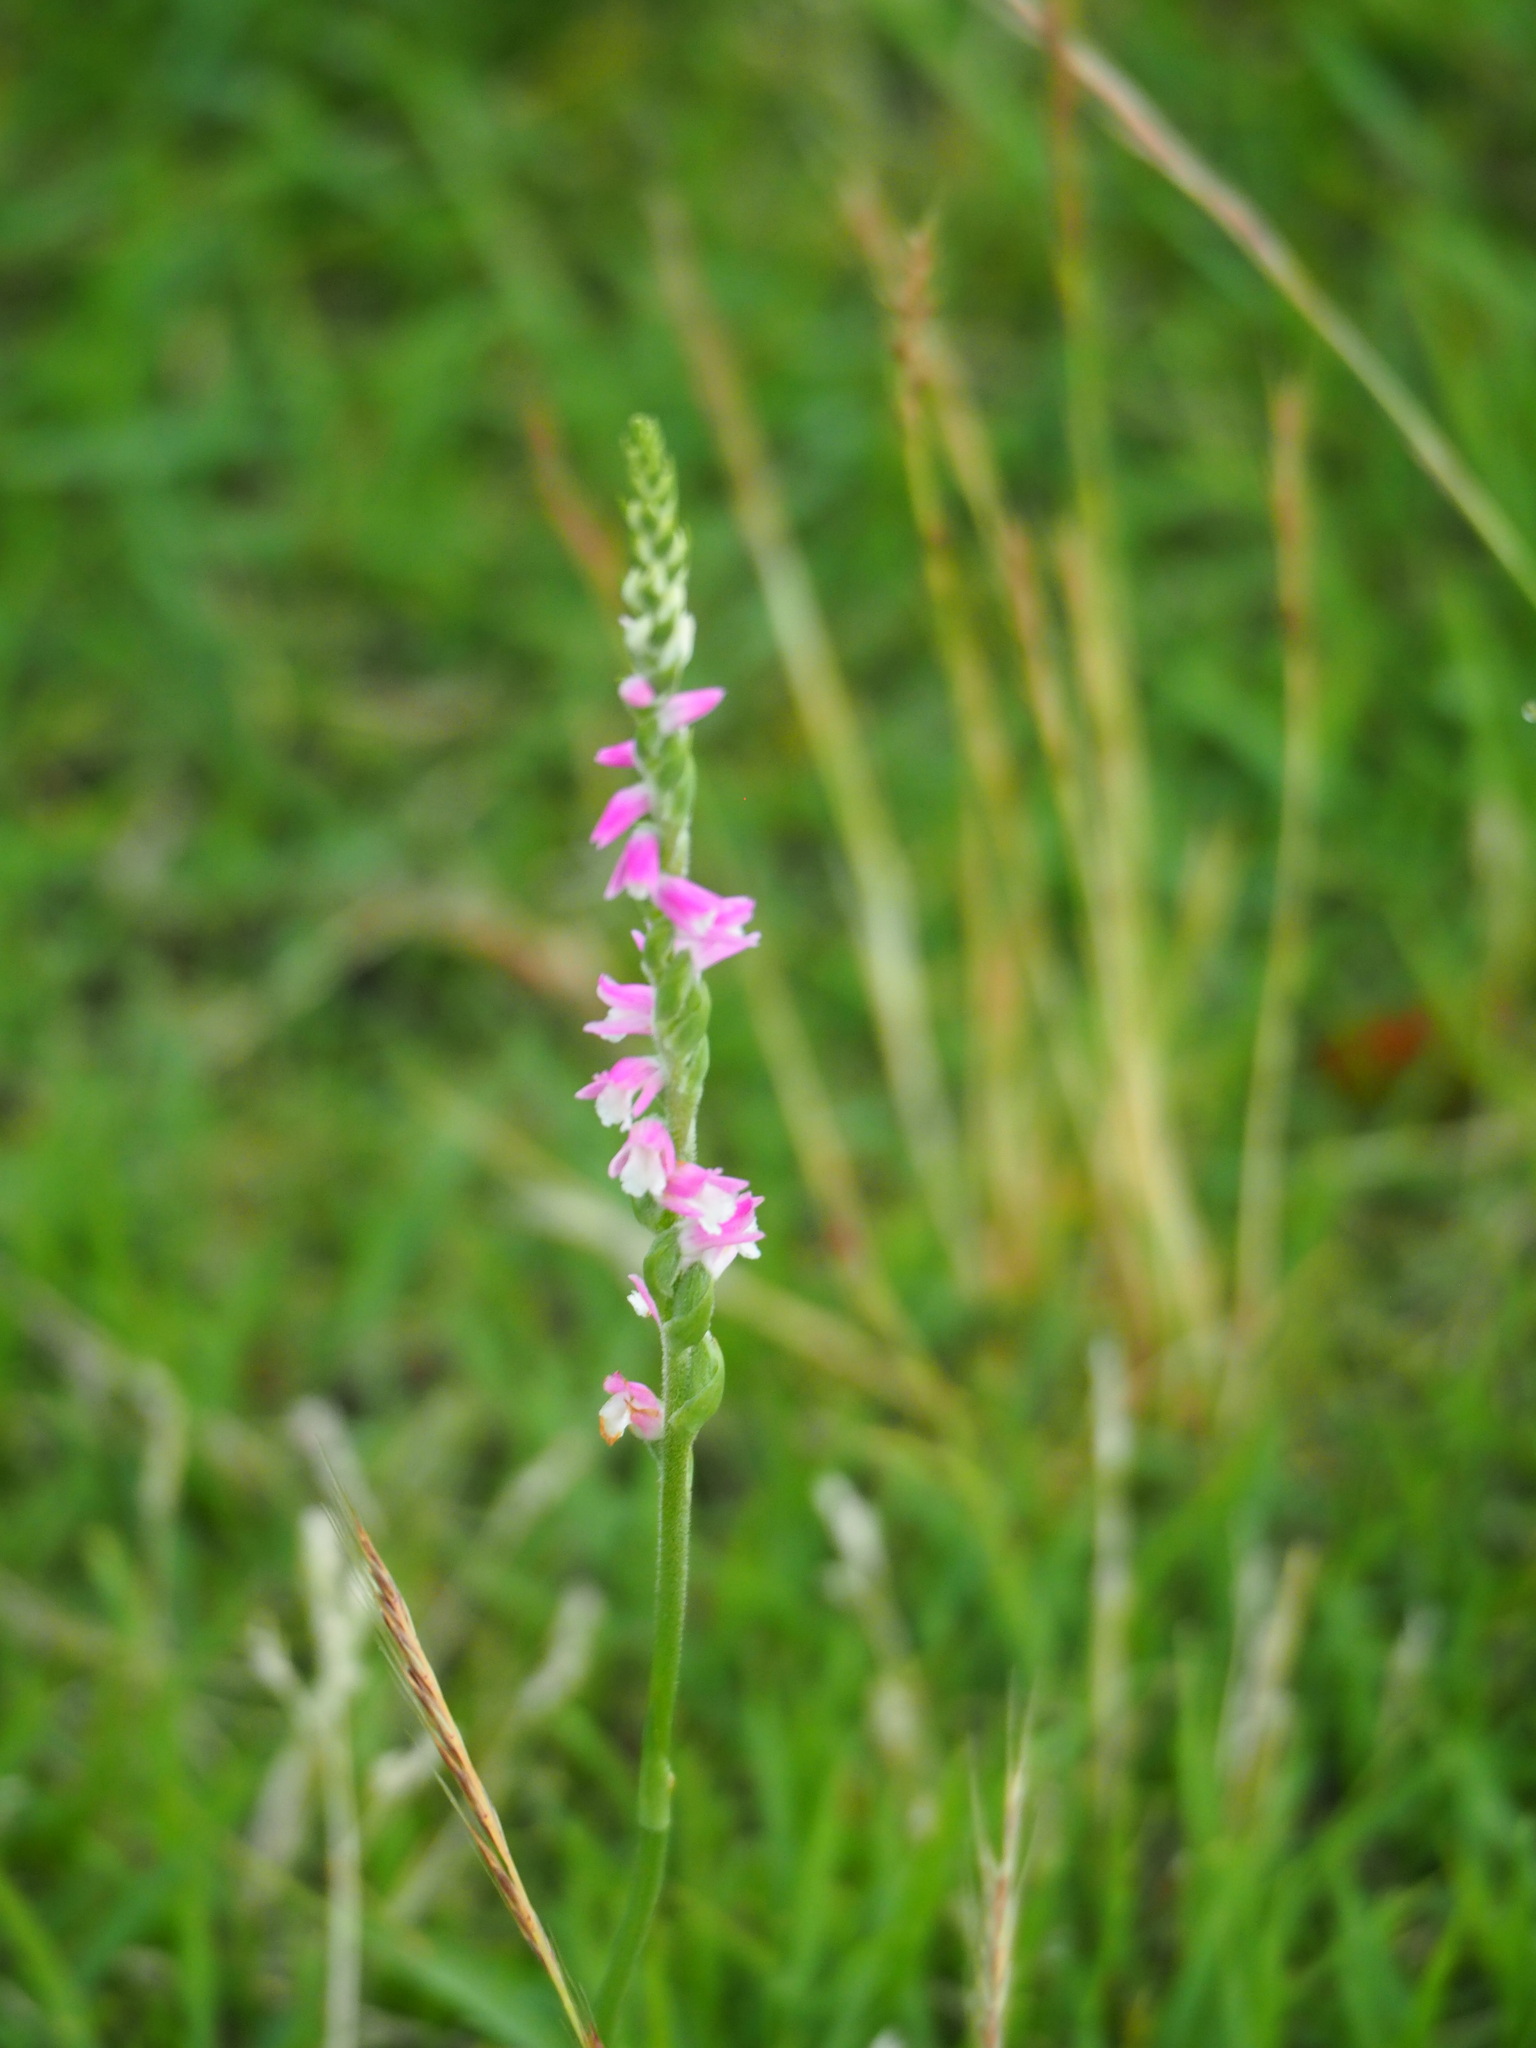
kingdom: Plantae
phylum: Tracheophyta
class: Liliopsida
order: Asparagales
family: Orchidaceae
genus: Spiranthes
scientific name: Spiranthes australis
